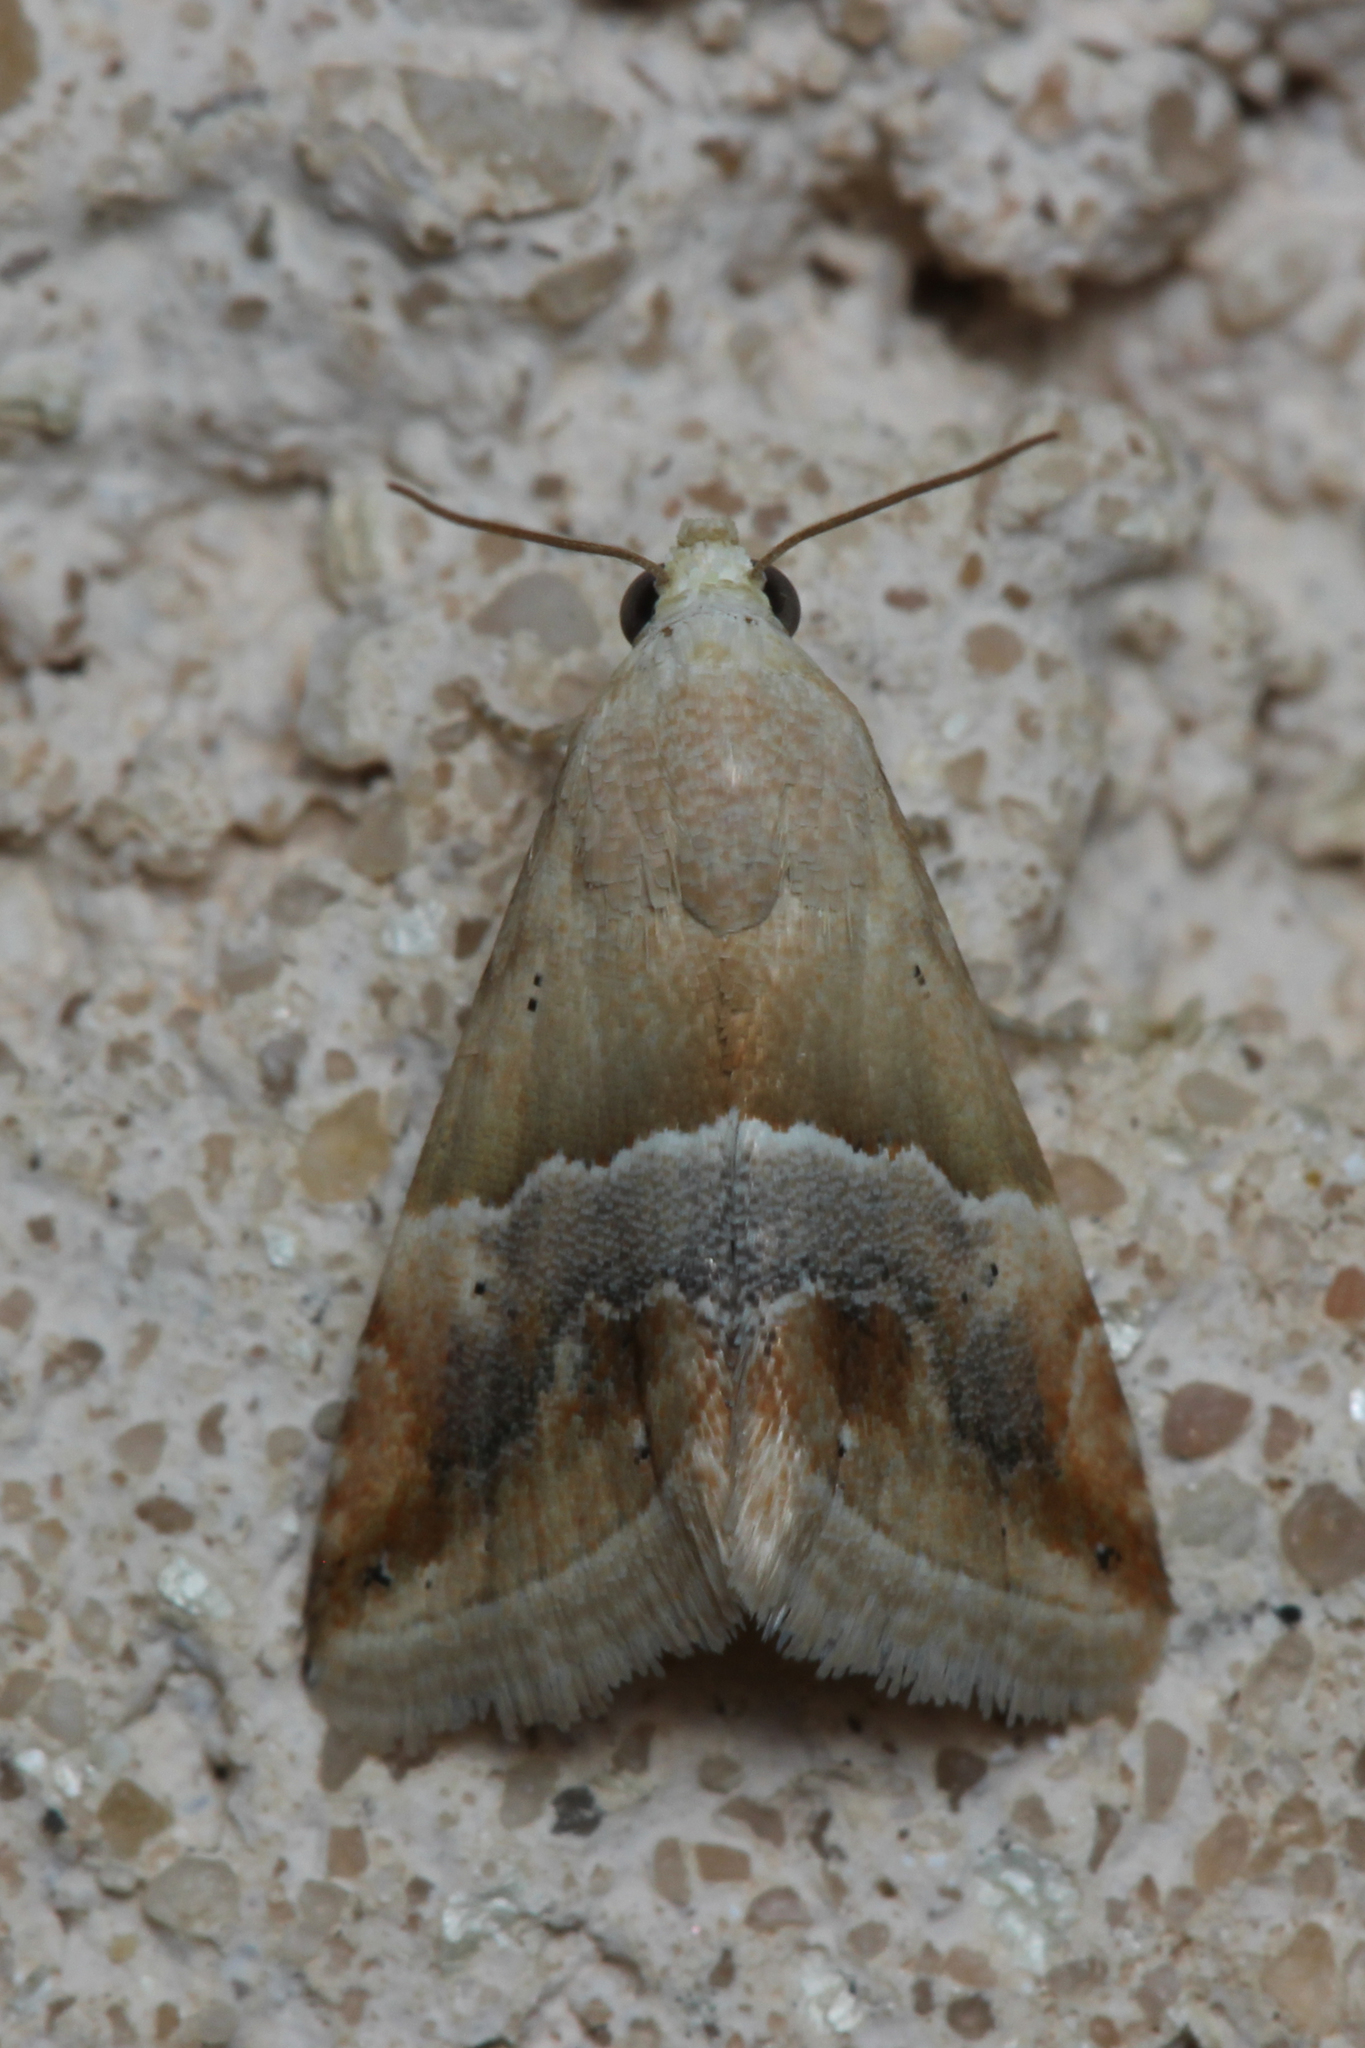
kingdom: Animalia
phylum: Arthropoda
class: Insecta
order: Lepidoptera
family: Noctuidae
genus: Eublemma
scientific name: Eublemma parva
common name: Small marbled
